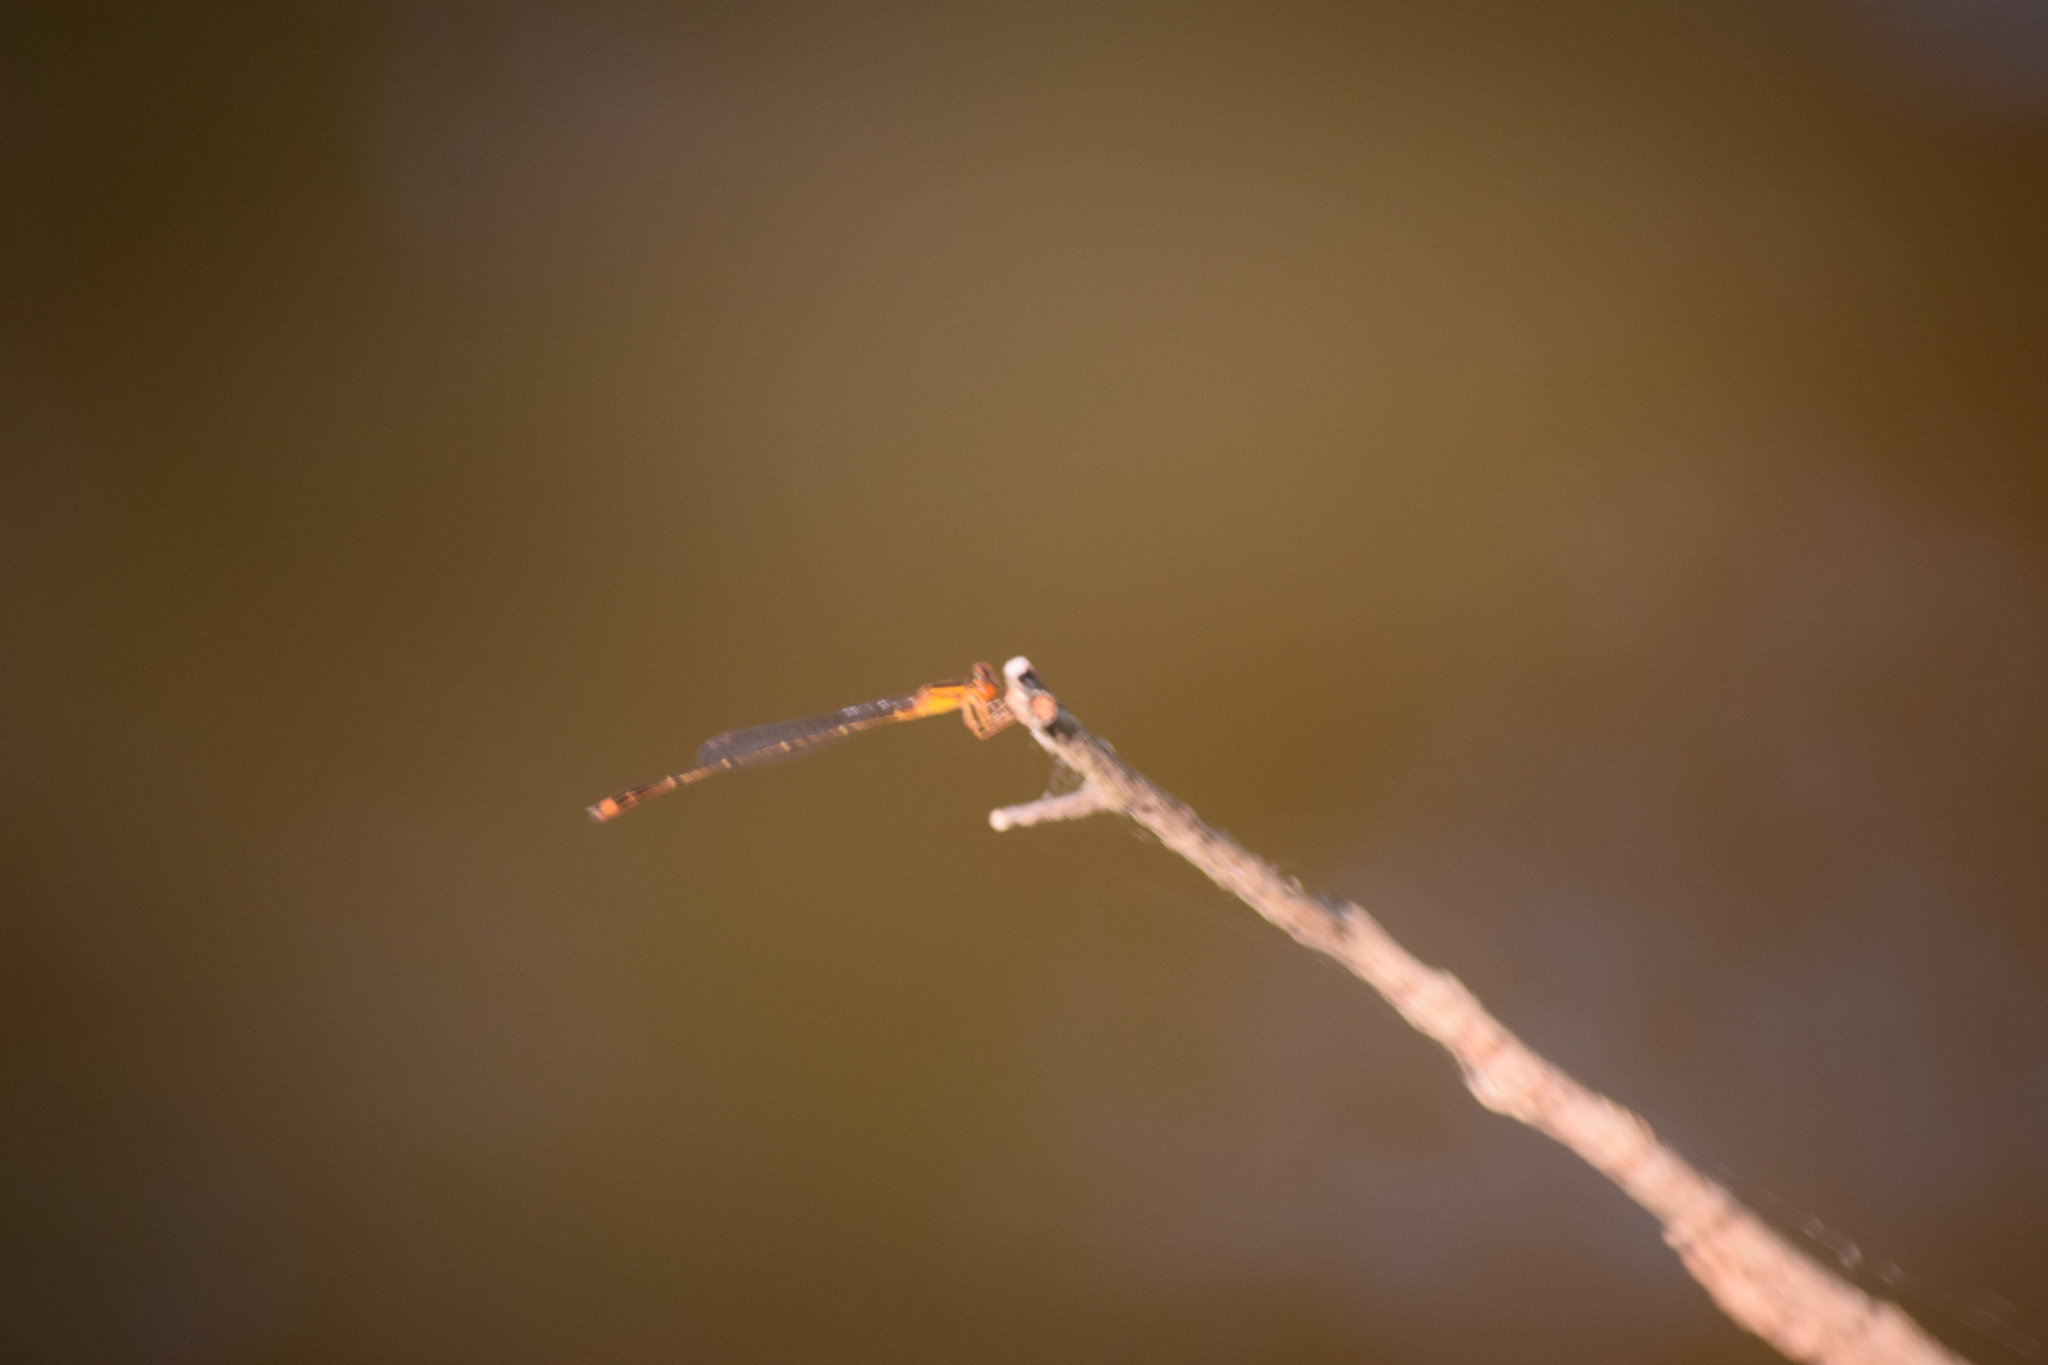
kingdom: Animalia
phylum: Arthropoda
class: Insecta
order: Odonata
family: Coenagrionidae
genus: Enallagma
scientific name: Enallagma signatum
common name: Orange bluet
